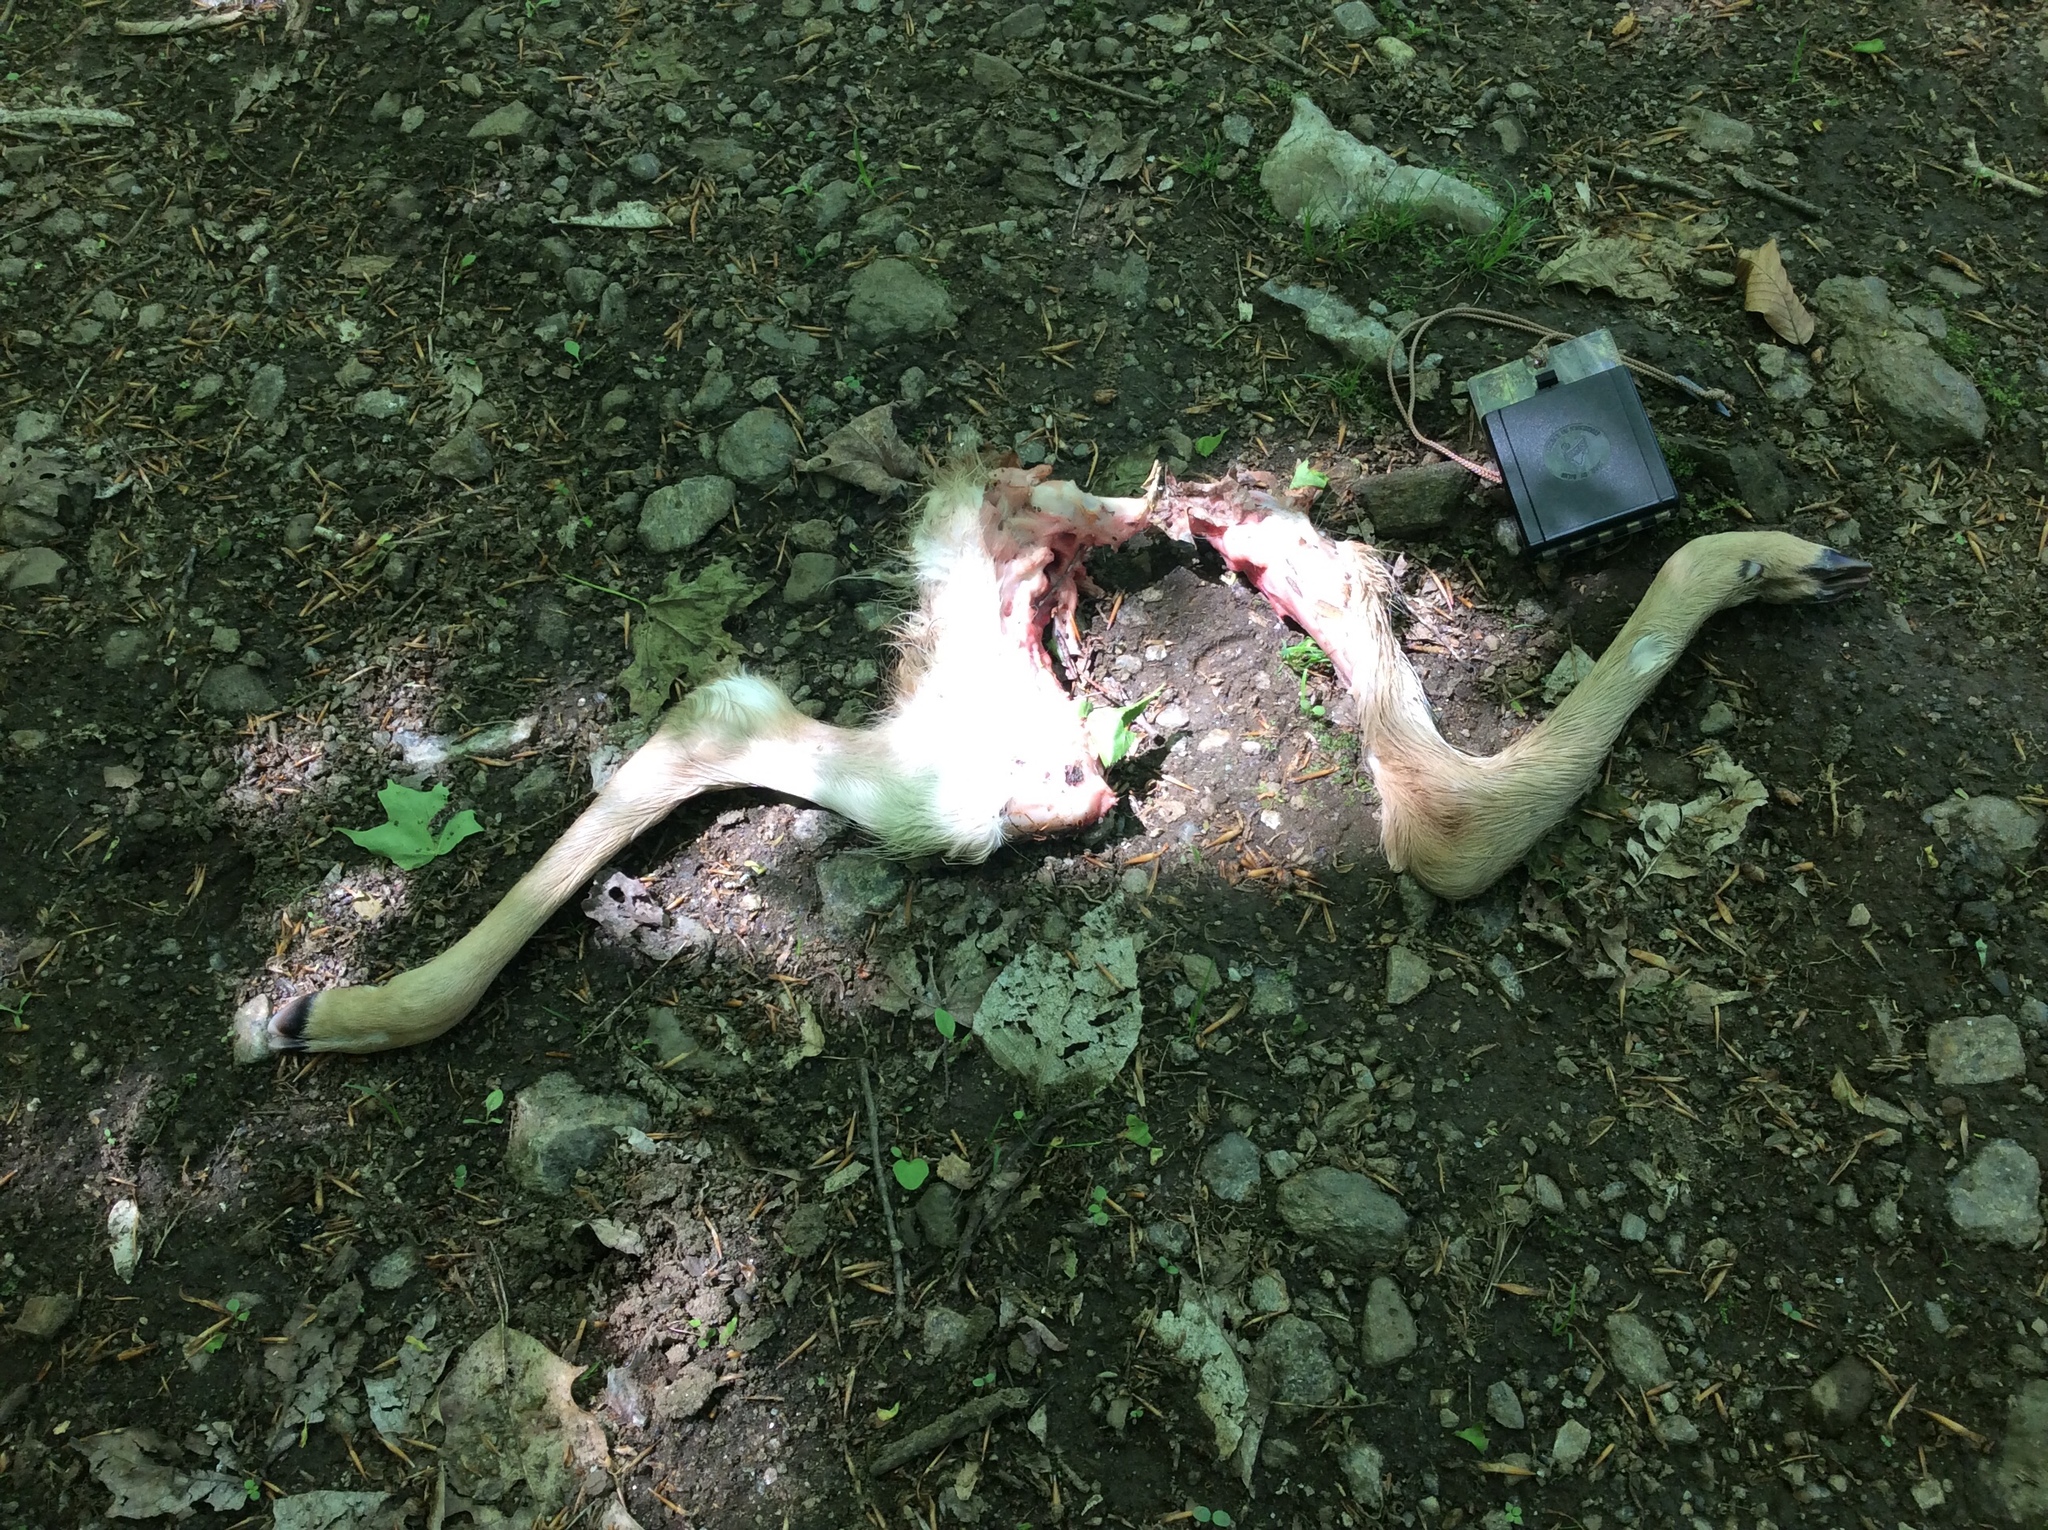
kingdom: Animalia
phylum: Chordata
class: Mammalia
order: Artiodactyla
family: Cervidae
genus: Odocoileus
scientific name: Odocoileus virginianus
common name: White-tailed deer
